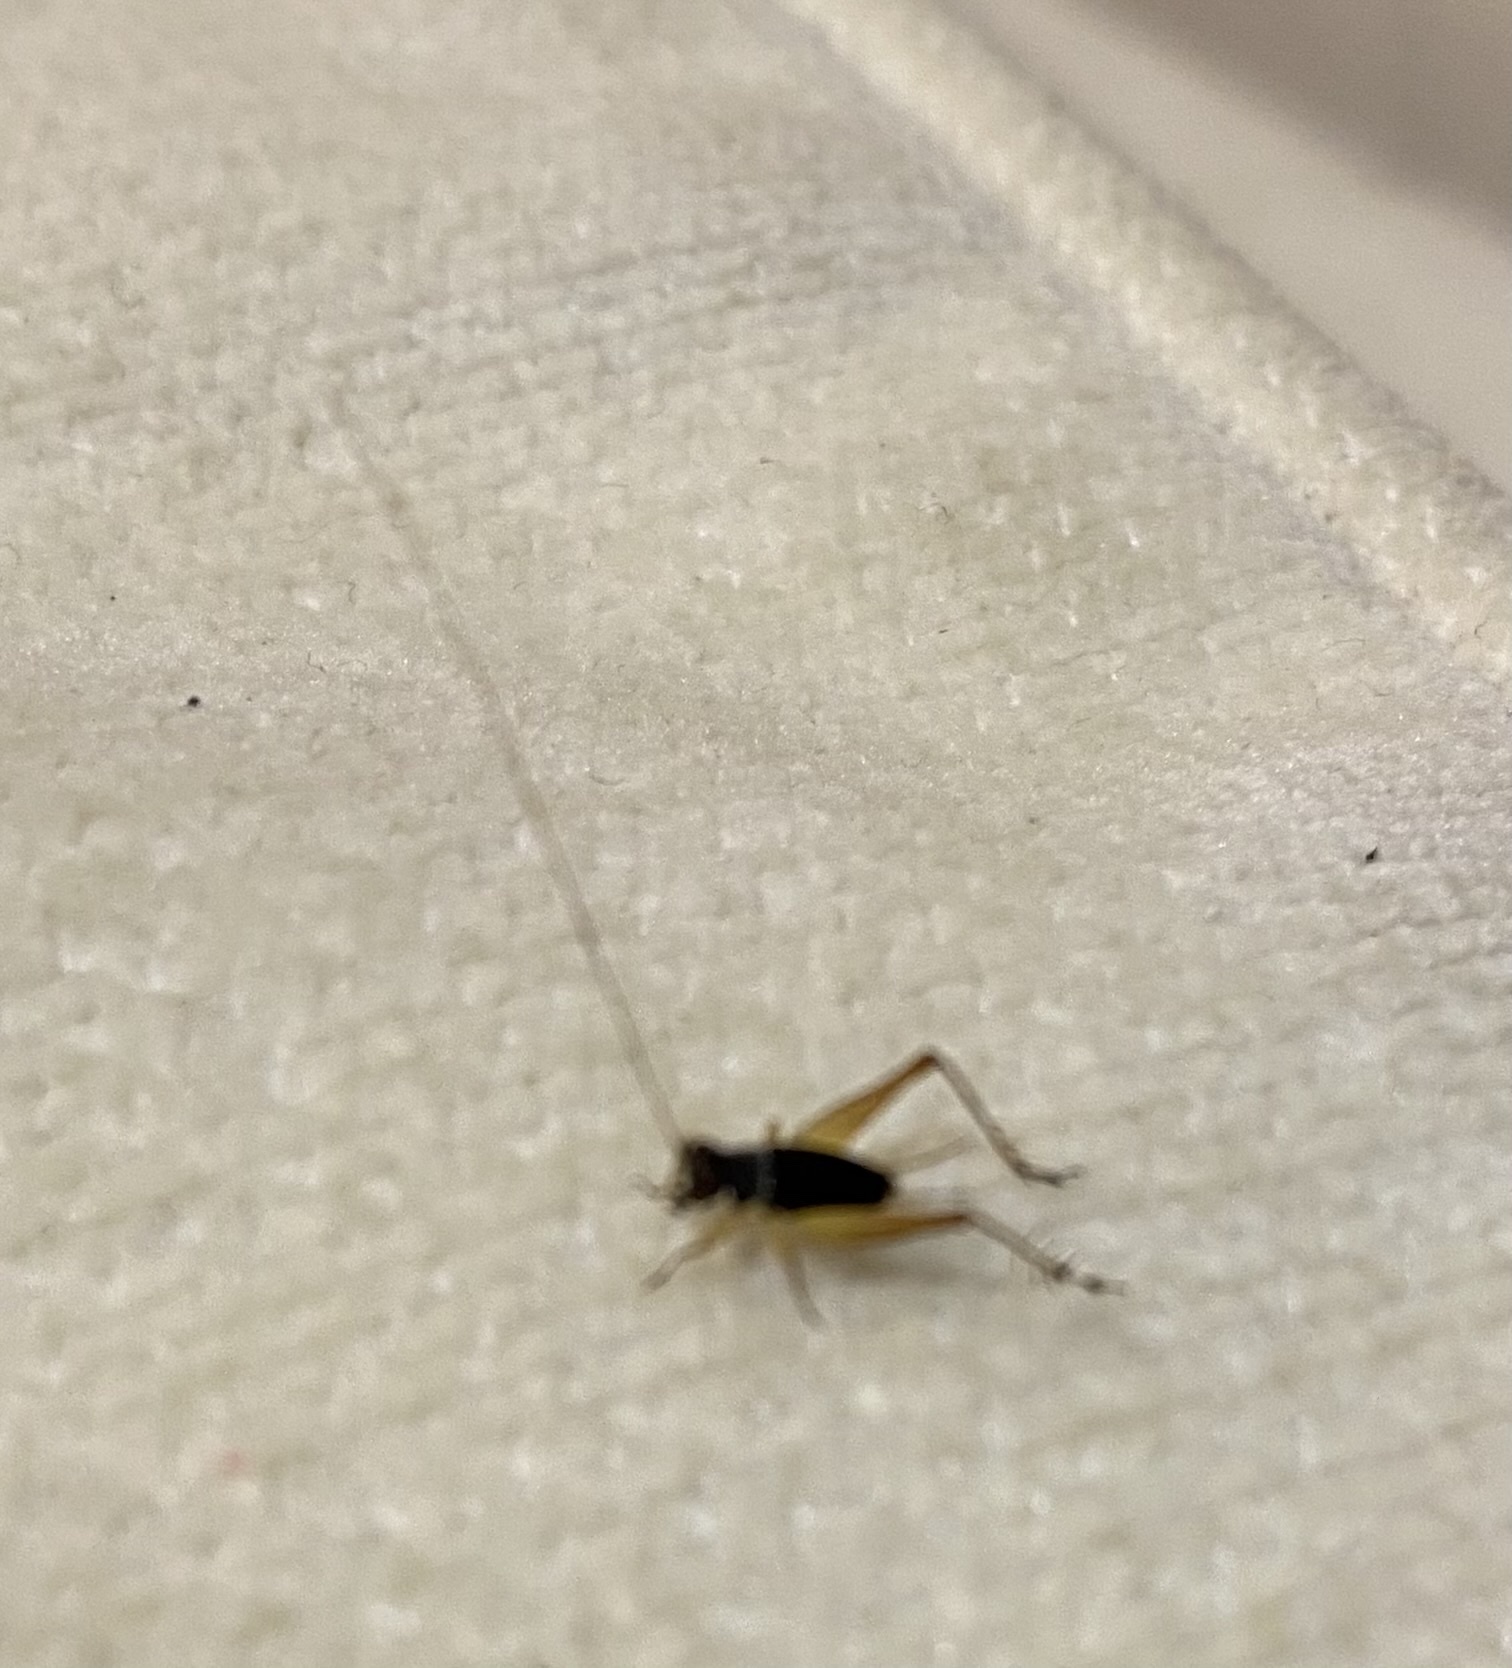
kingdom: Animalia
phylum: Arthropoda
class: Insecta
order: Orthoptera
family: Trigonidiidae
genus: Metioche
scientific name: Metioche maorica
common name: New zealand trig
